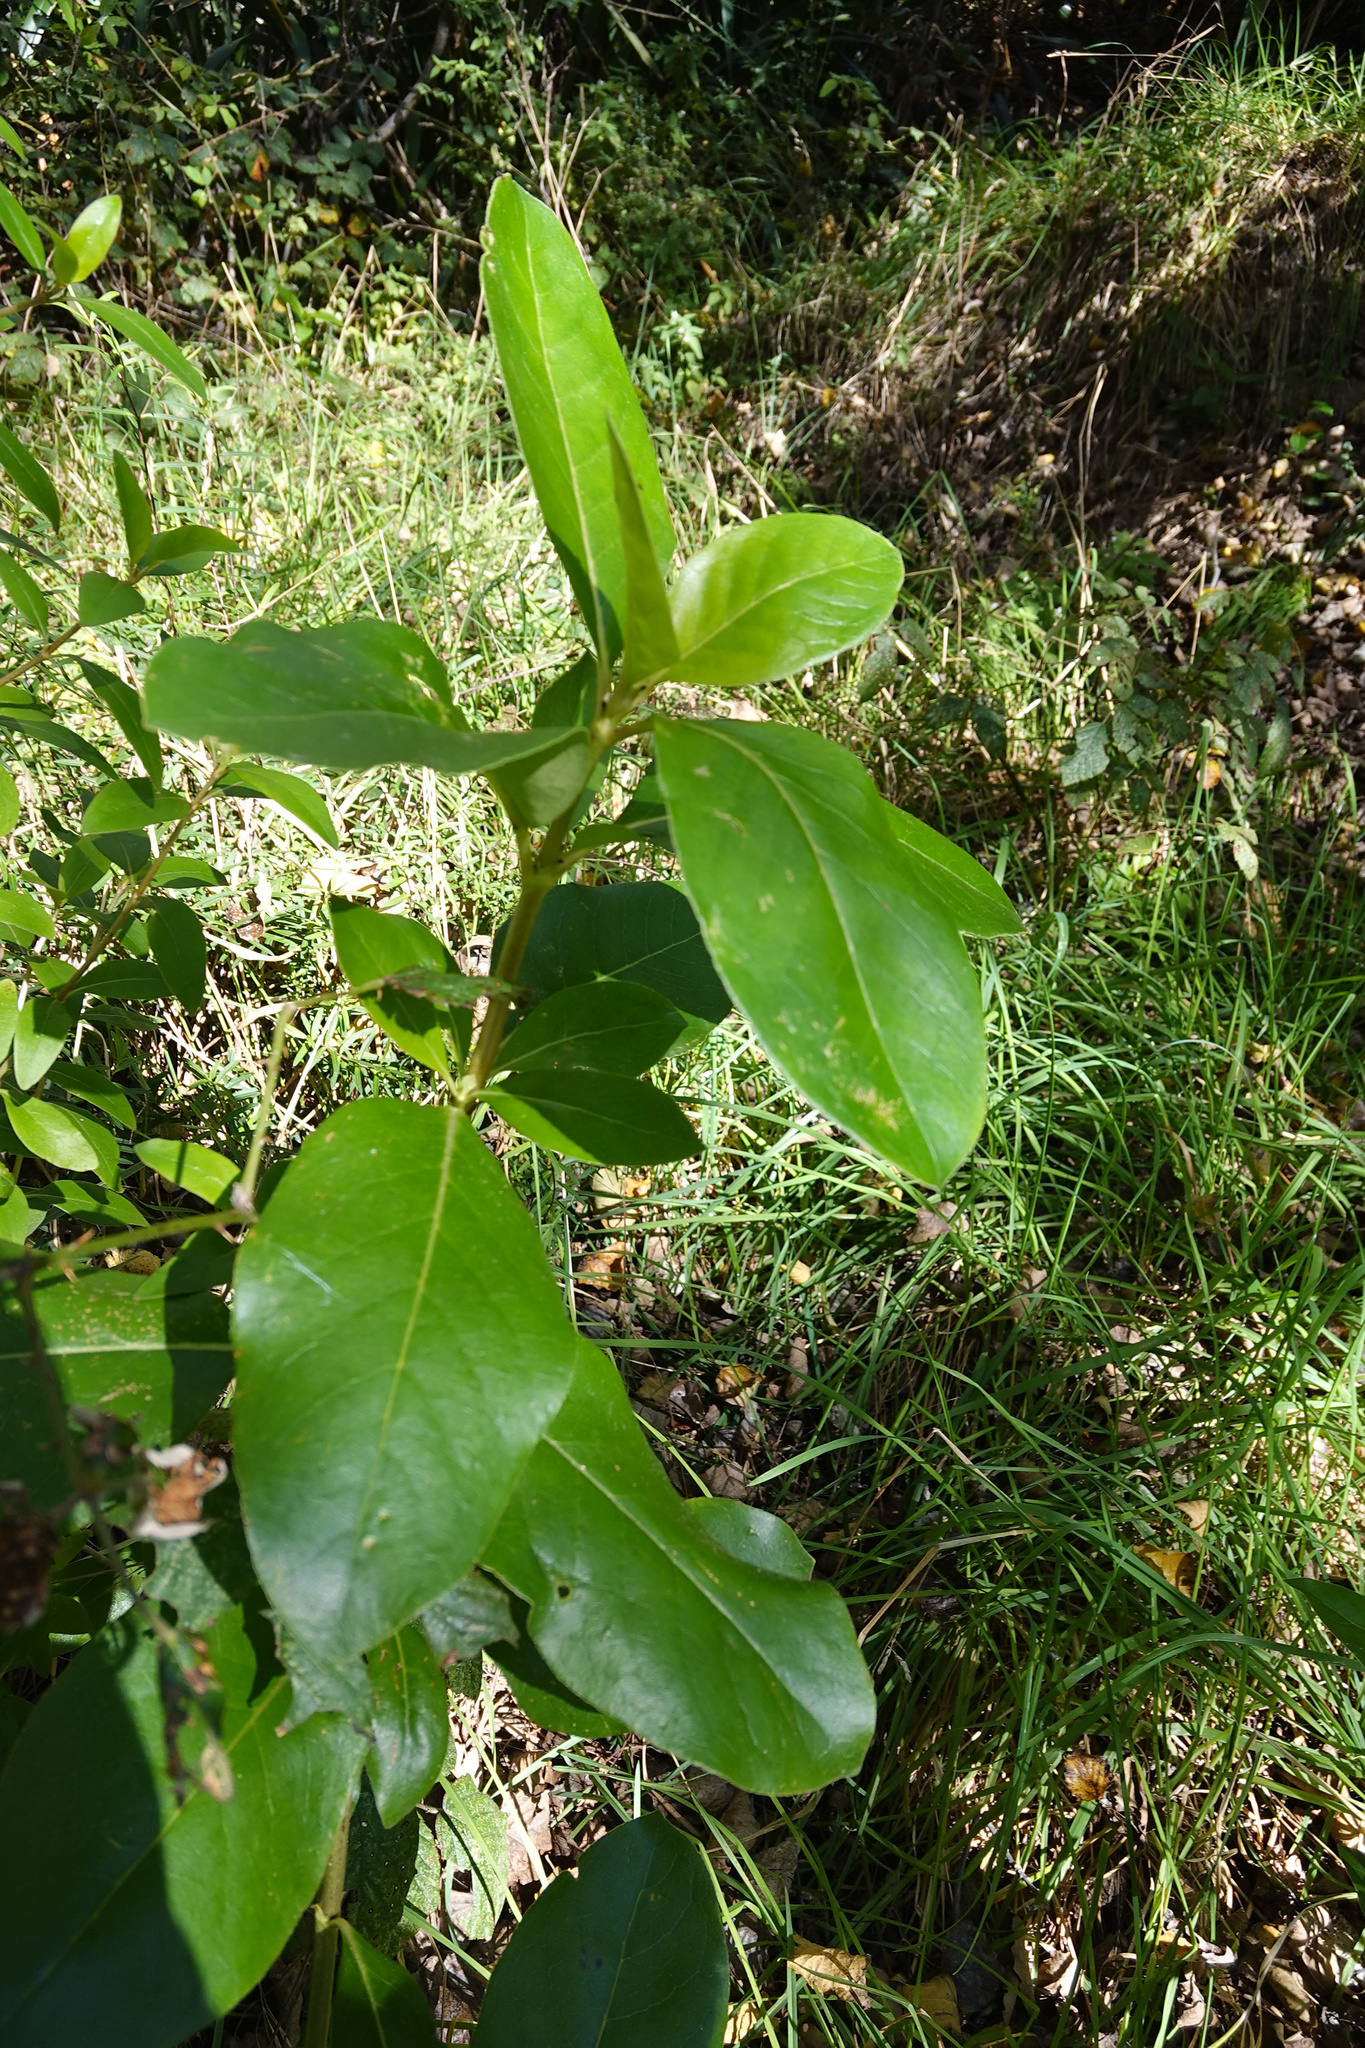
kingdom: Plantae
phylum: Tracheophyta
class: Magnoliopsida
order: Gentianales
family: Rubiaceae
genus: Coprosma
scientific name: Coprosma robusta
